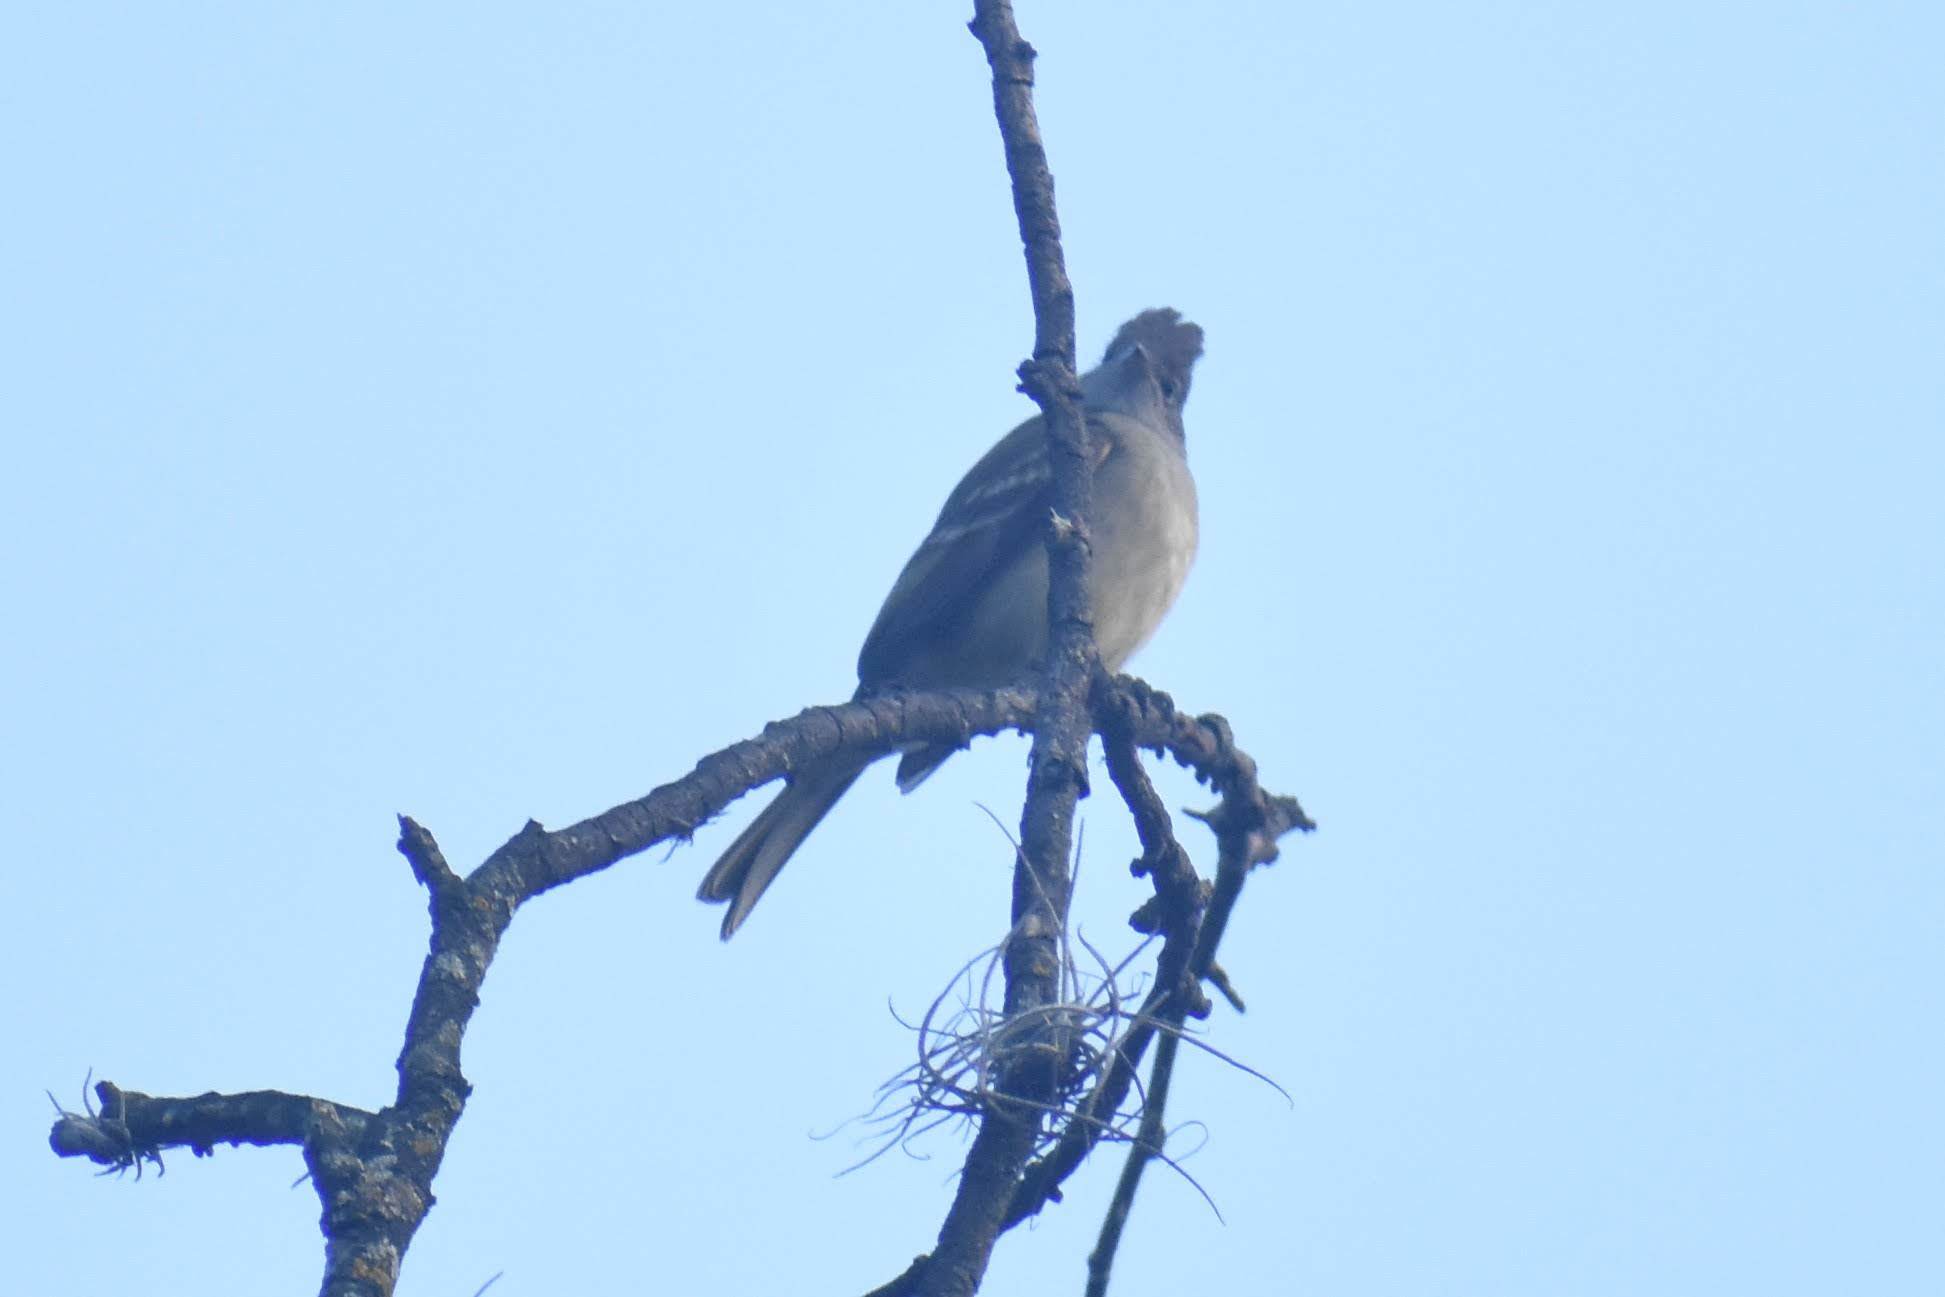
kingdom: Animalia
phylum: Chordata
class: Aves
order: Passeriformes
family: Tyrannidae
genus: Elaenia
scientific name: Elaenia flavogaster
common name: Yellow-bellied elaenia
